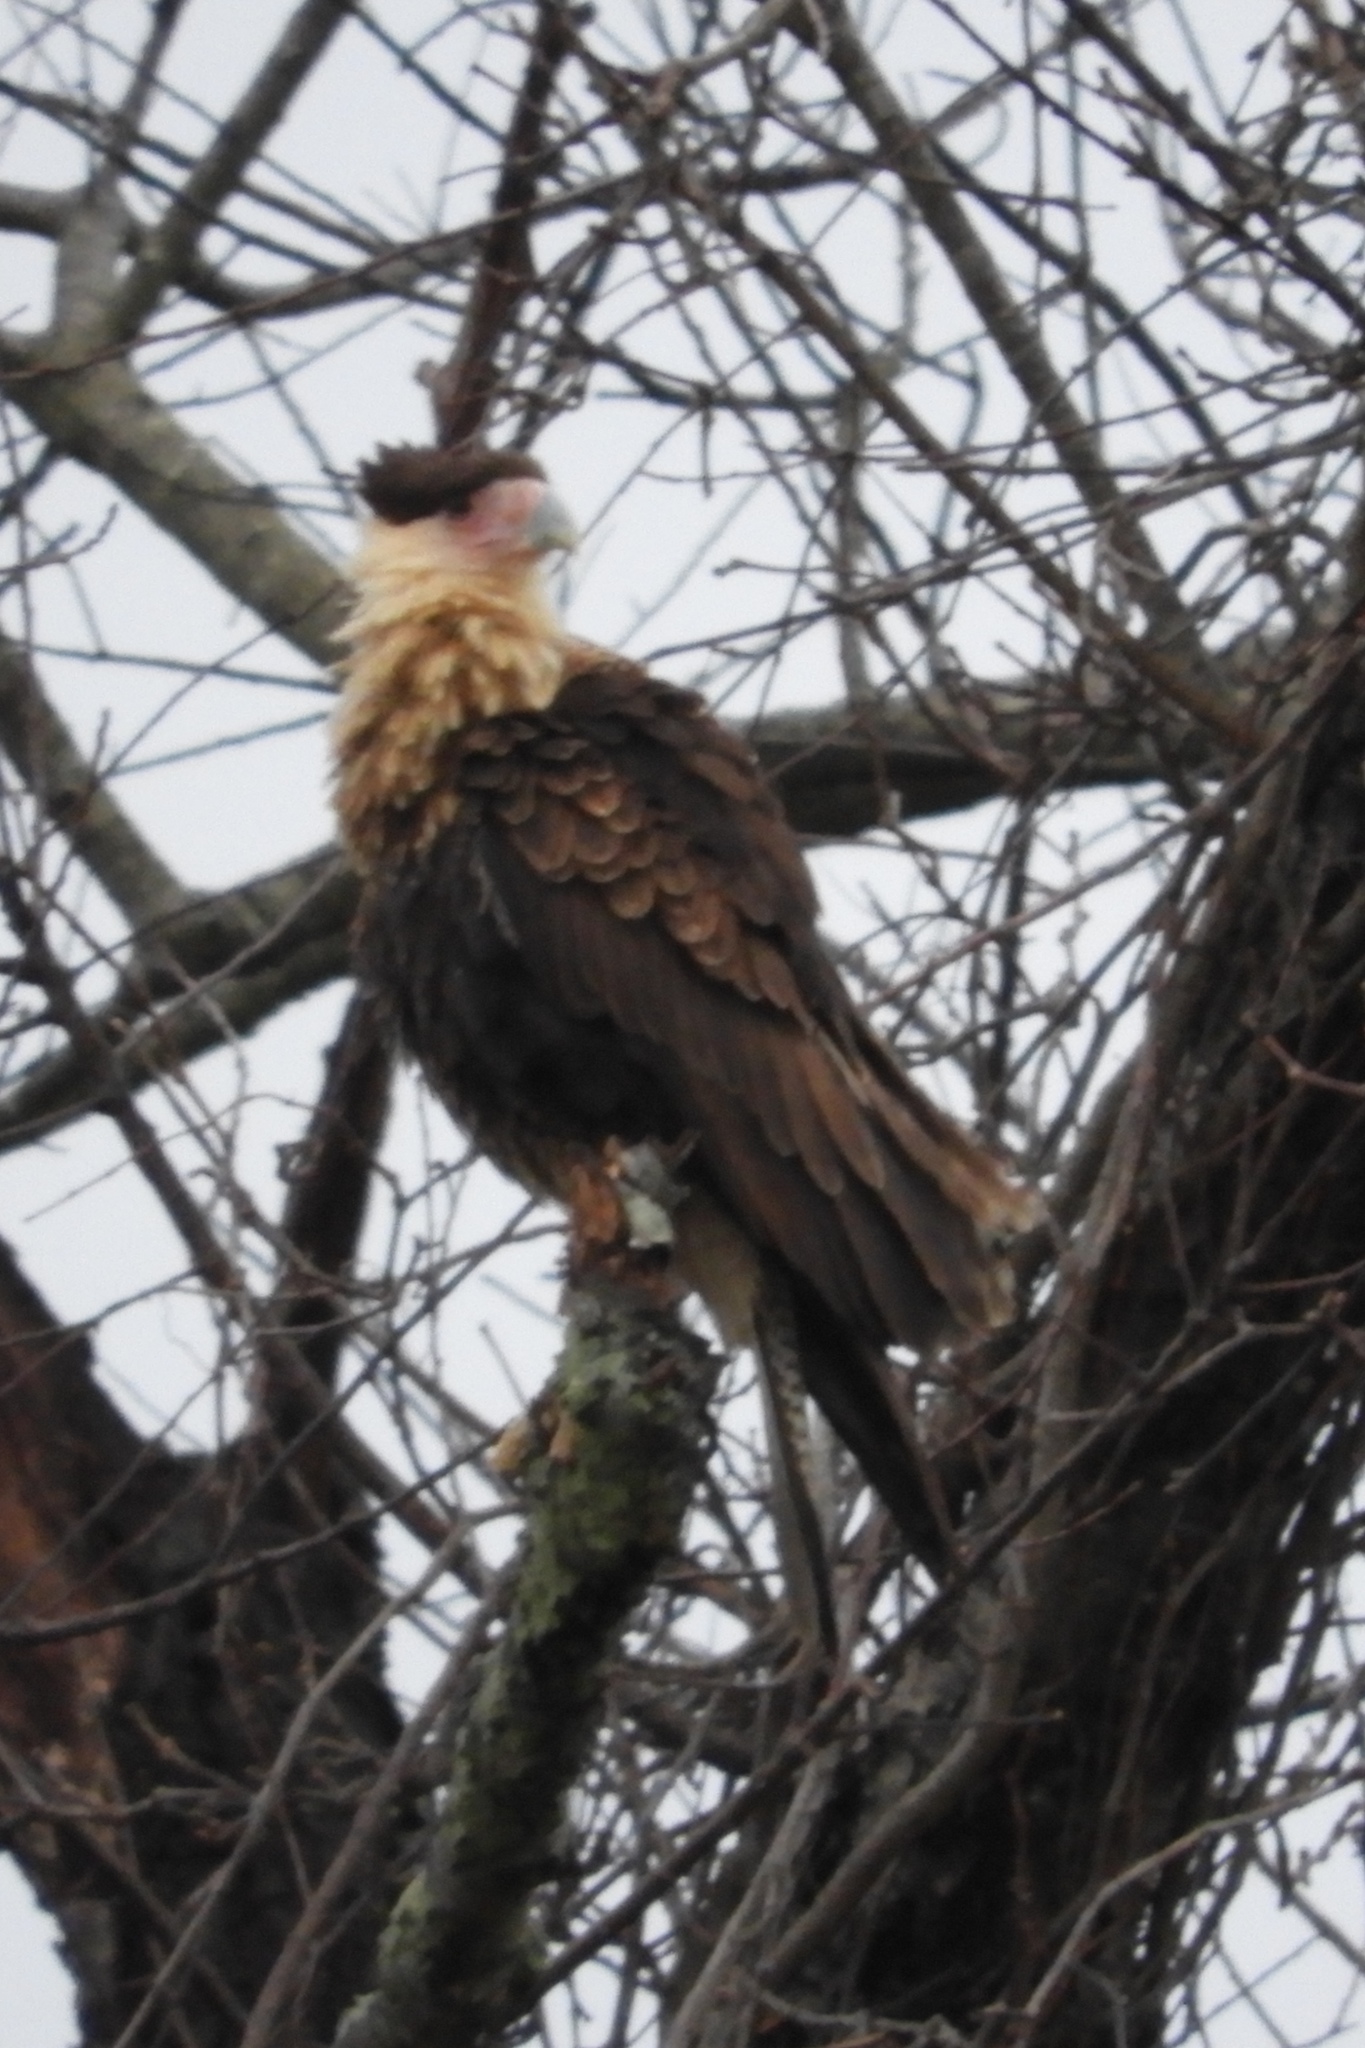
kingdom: Animalia
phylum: Chordata
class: Aves
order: Falconiformes
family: Falconidae
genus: Caracara
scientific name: Caracara plancus
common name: Southern caracara
